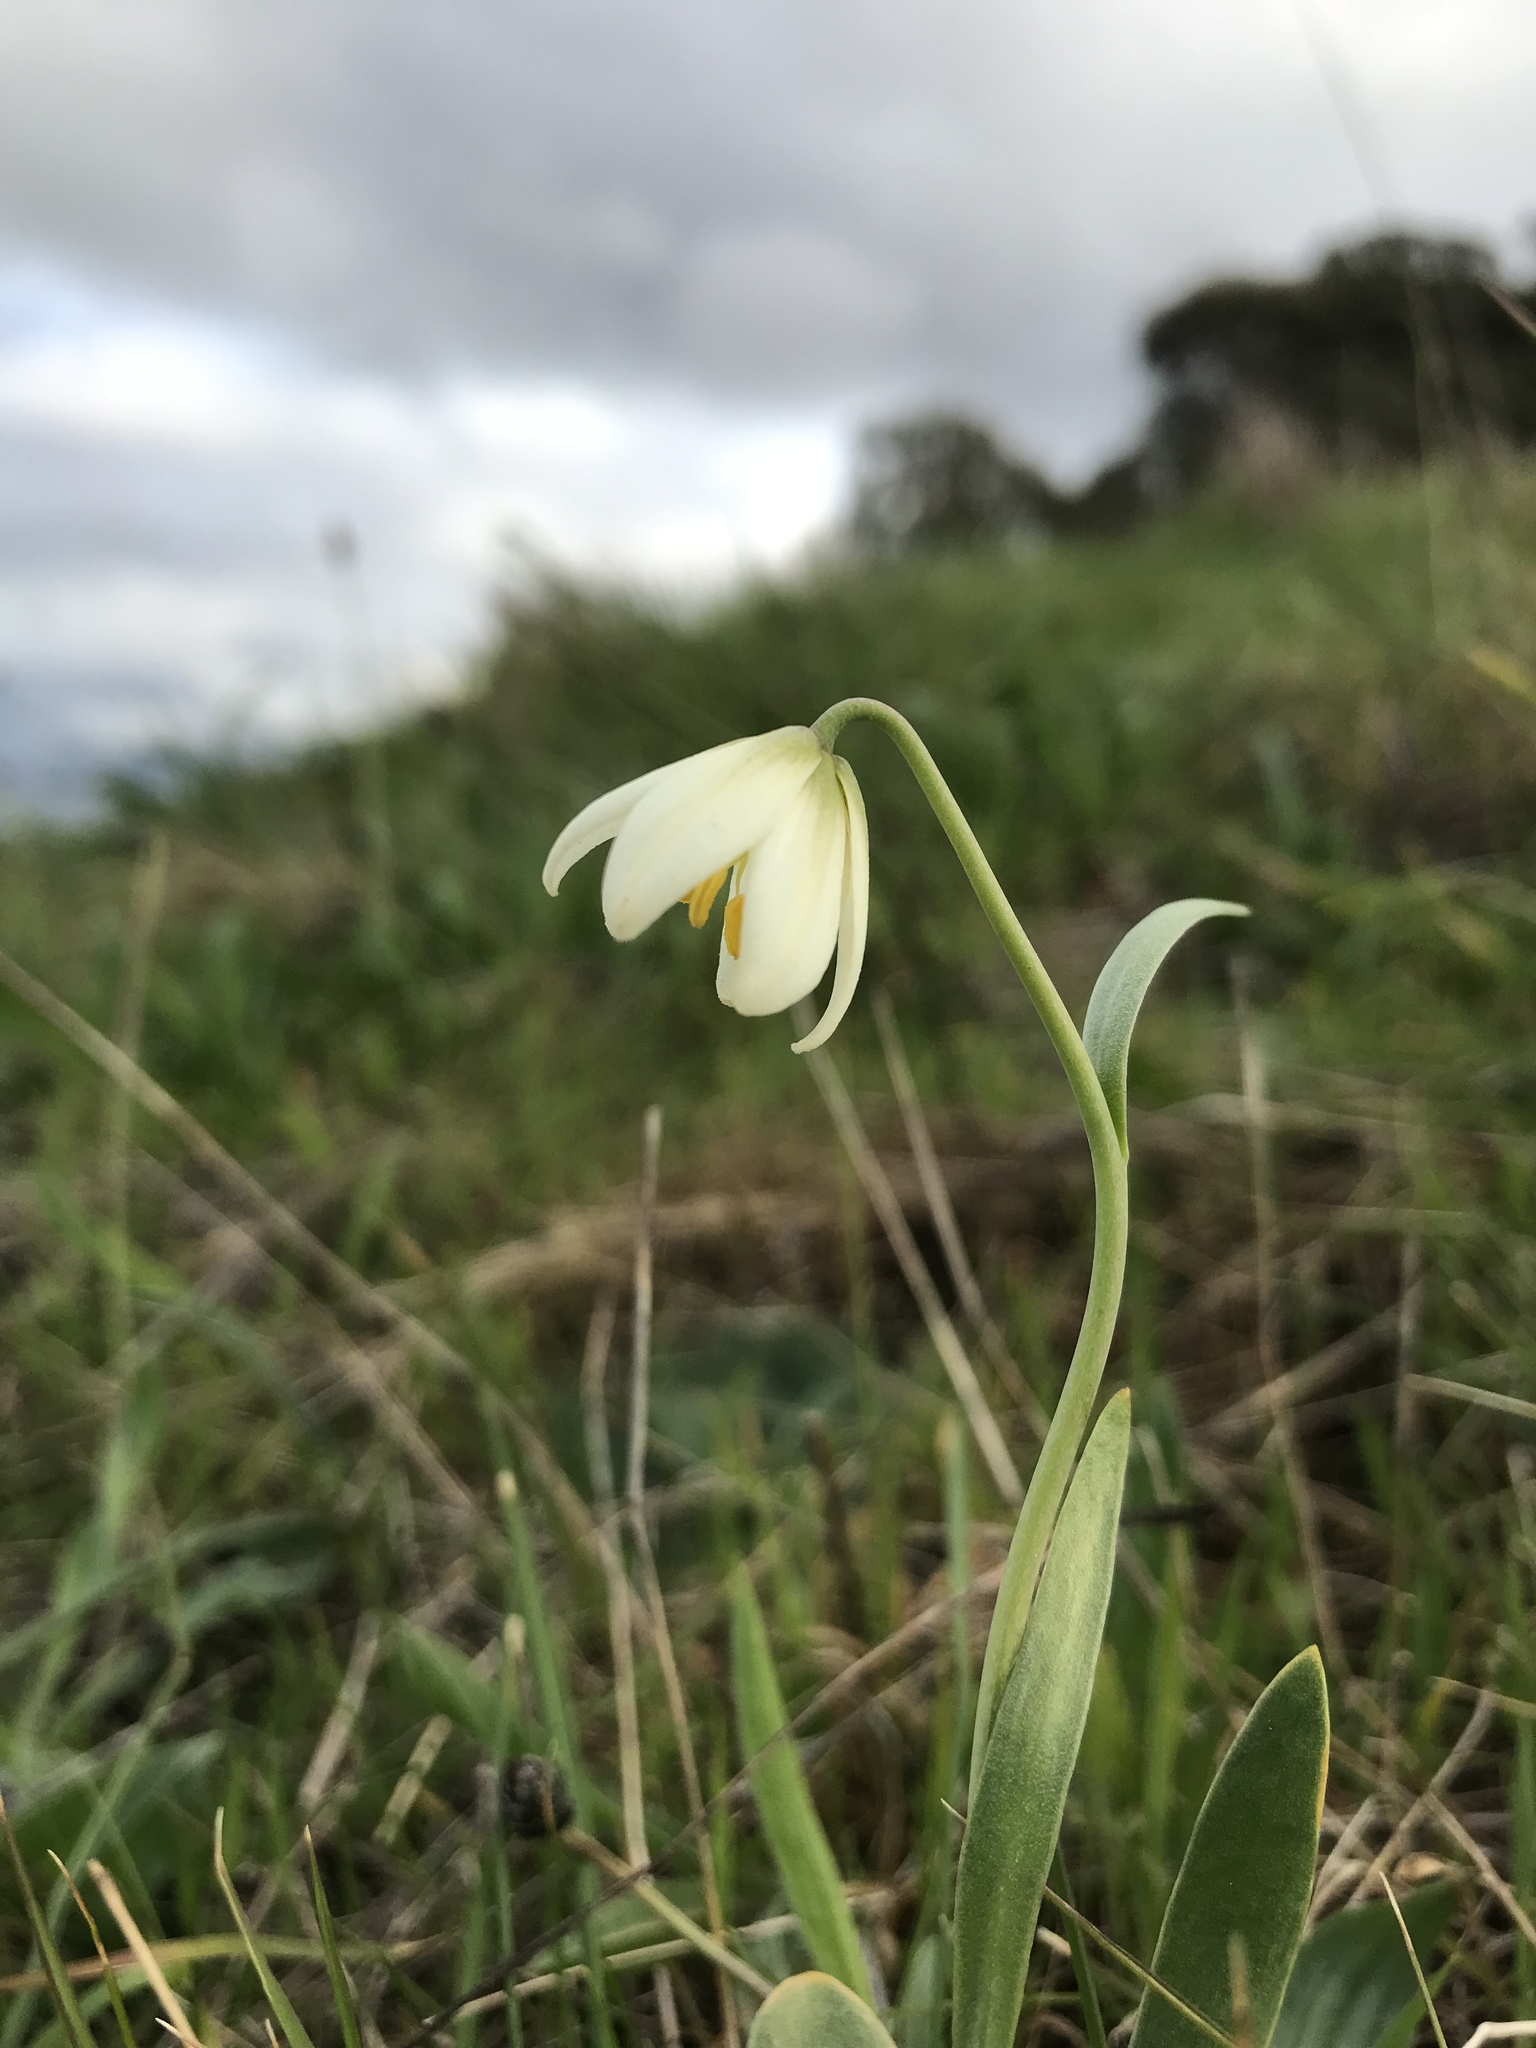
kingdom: Plantae
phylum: Tracheophyta
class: Liliopsida
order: Liliales
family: Liliaceae
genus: Fritillaria
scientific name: Fritillaria liliacea
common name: Fragrant fritillary
